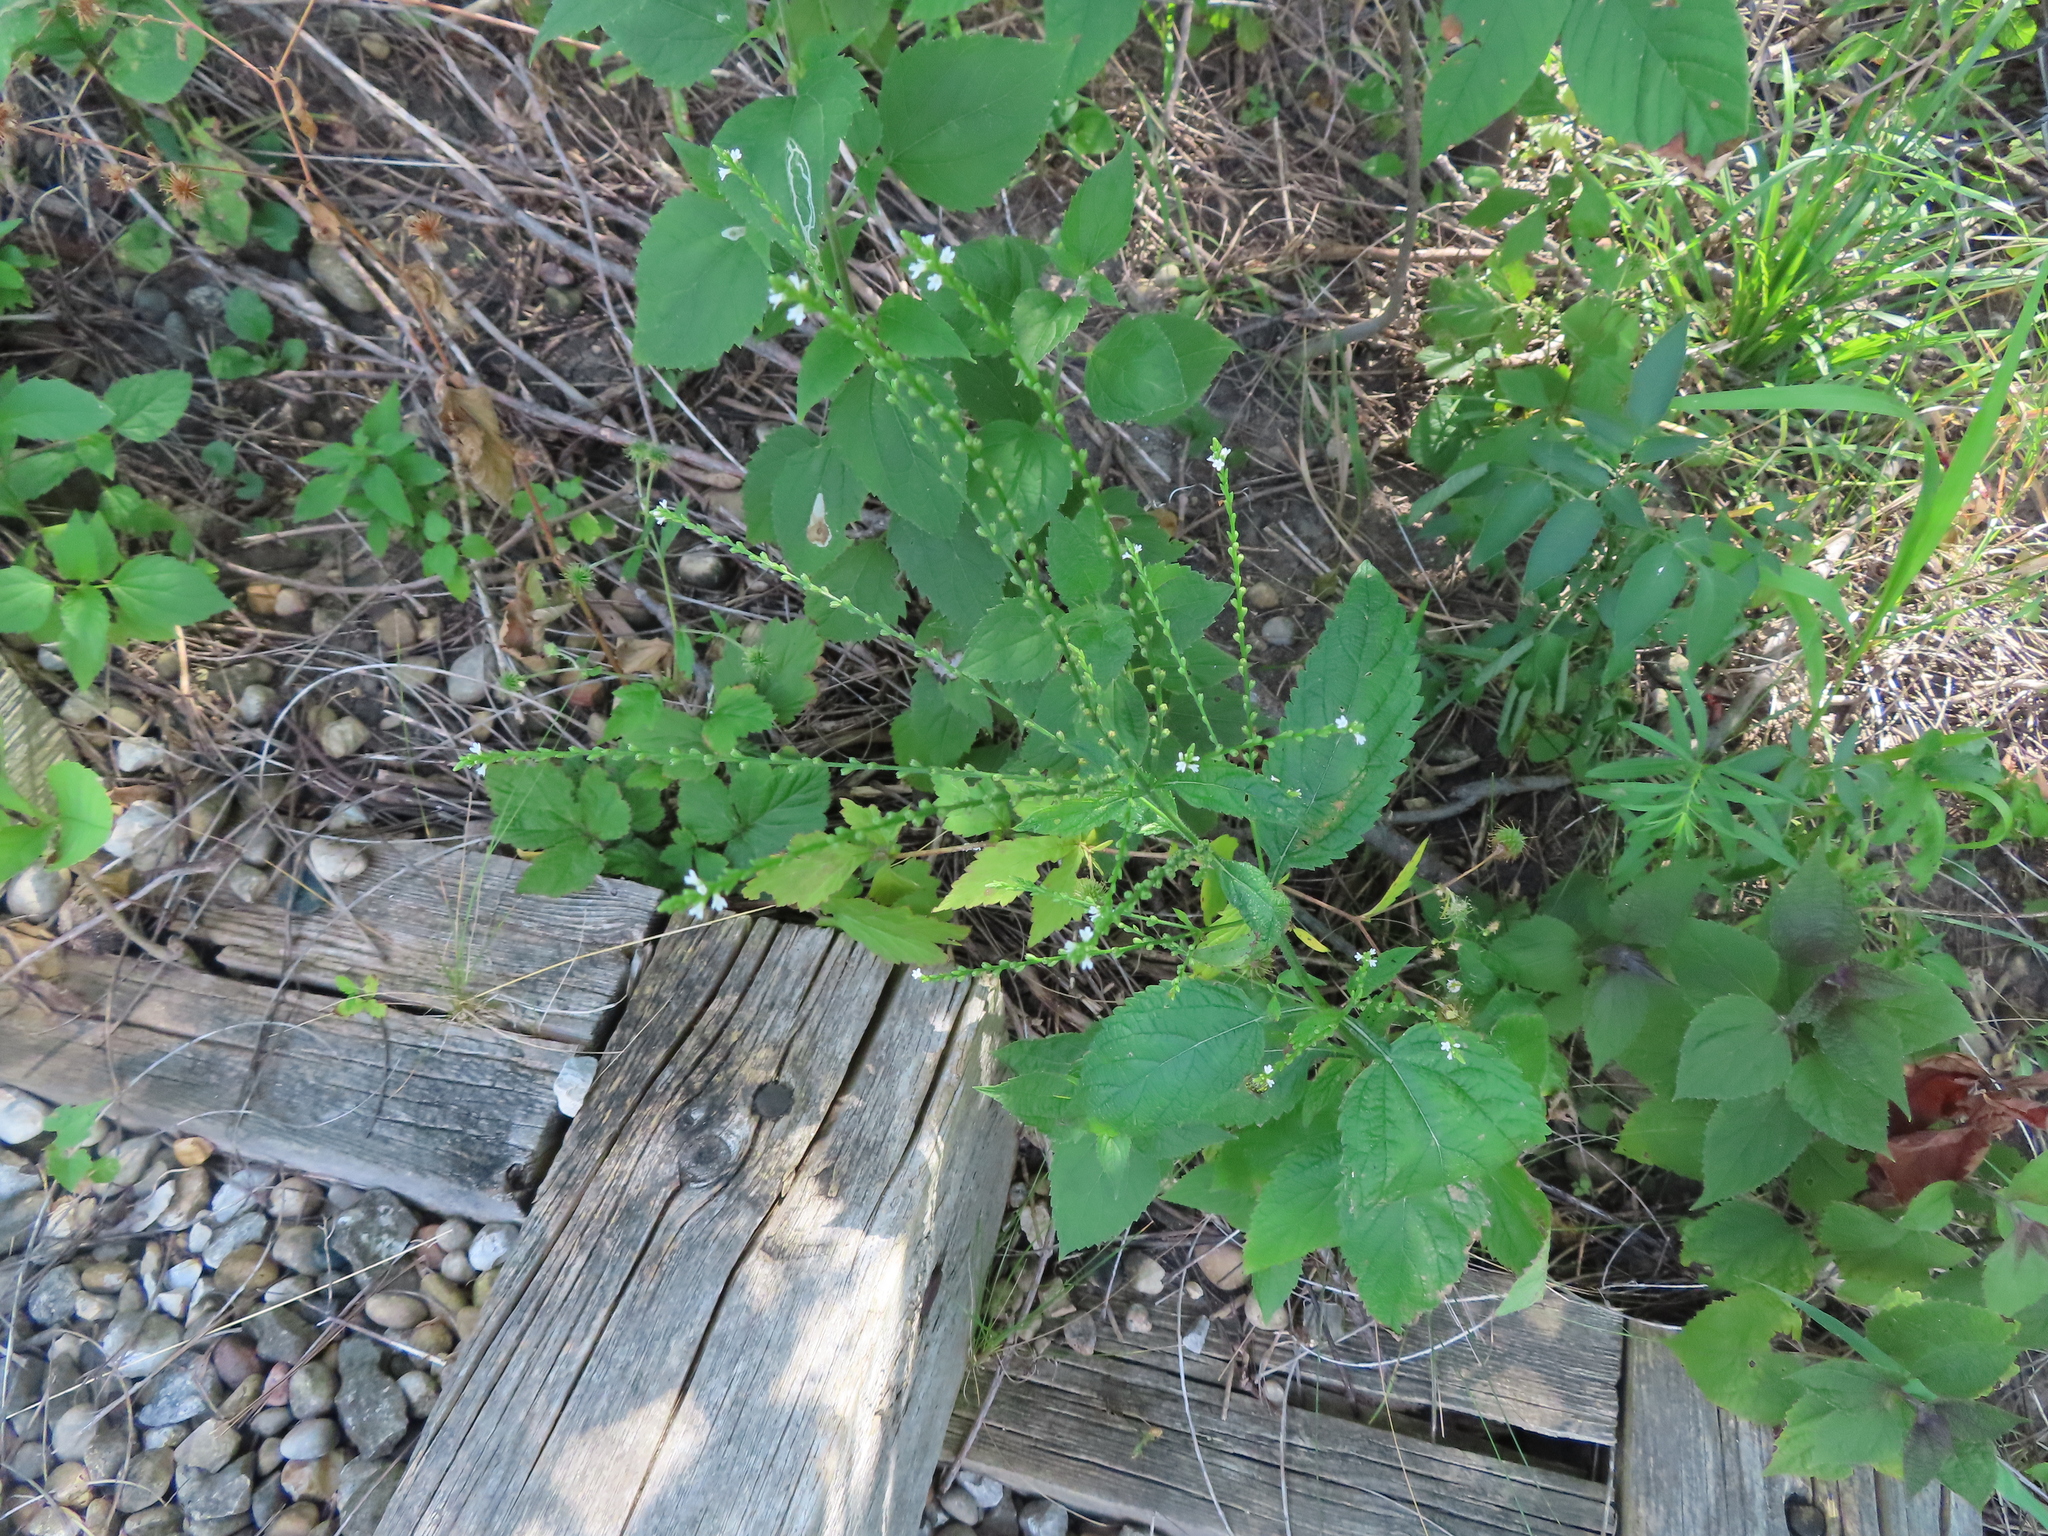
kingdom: Plantae
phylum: Tracheophyta
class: Magnoliopsida
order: Lamiales
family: Verbenaceae
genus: Verbena
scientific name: Verbena urticifolia
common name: Nettle-leaved vervain
